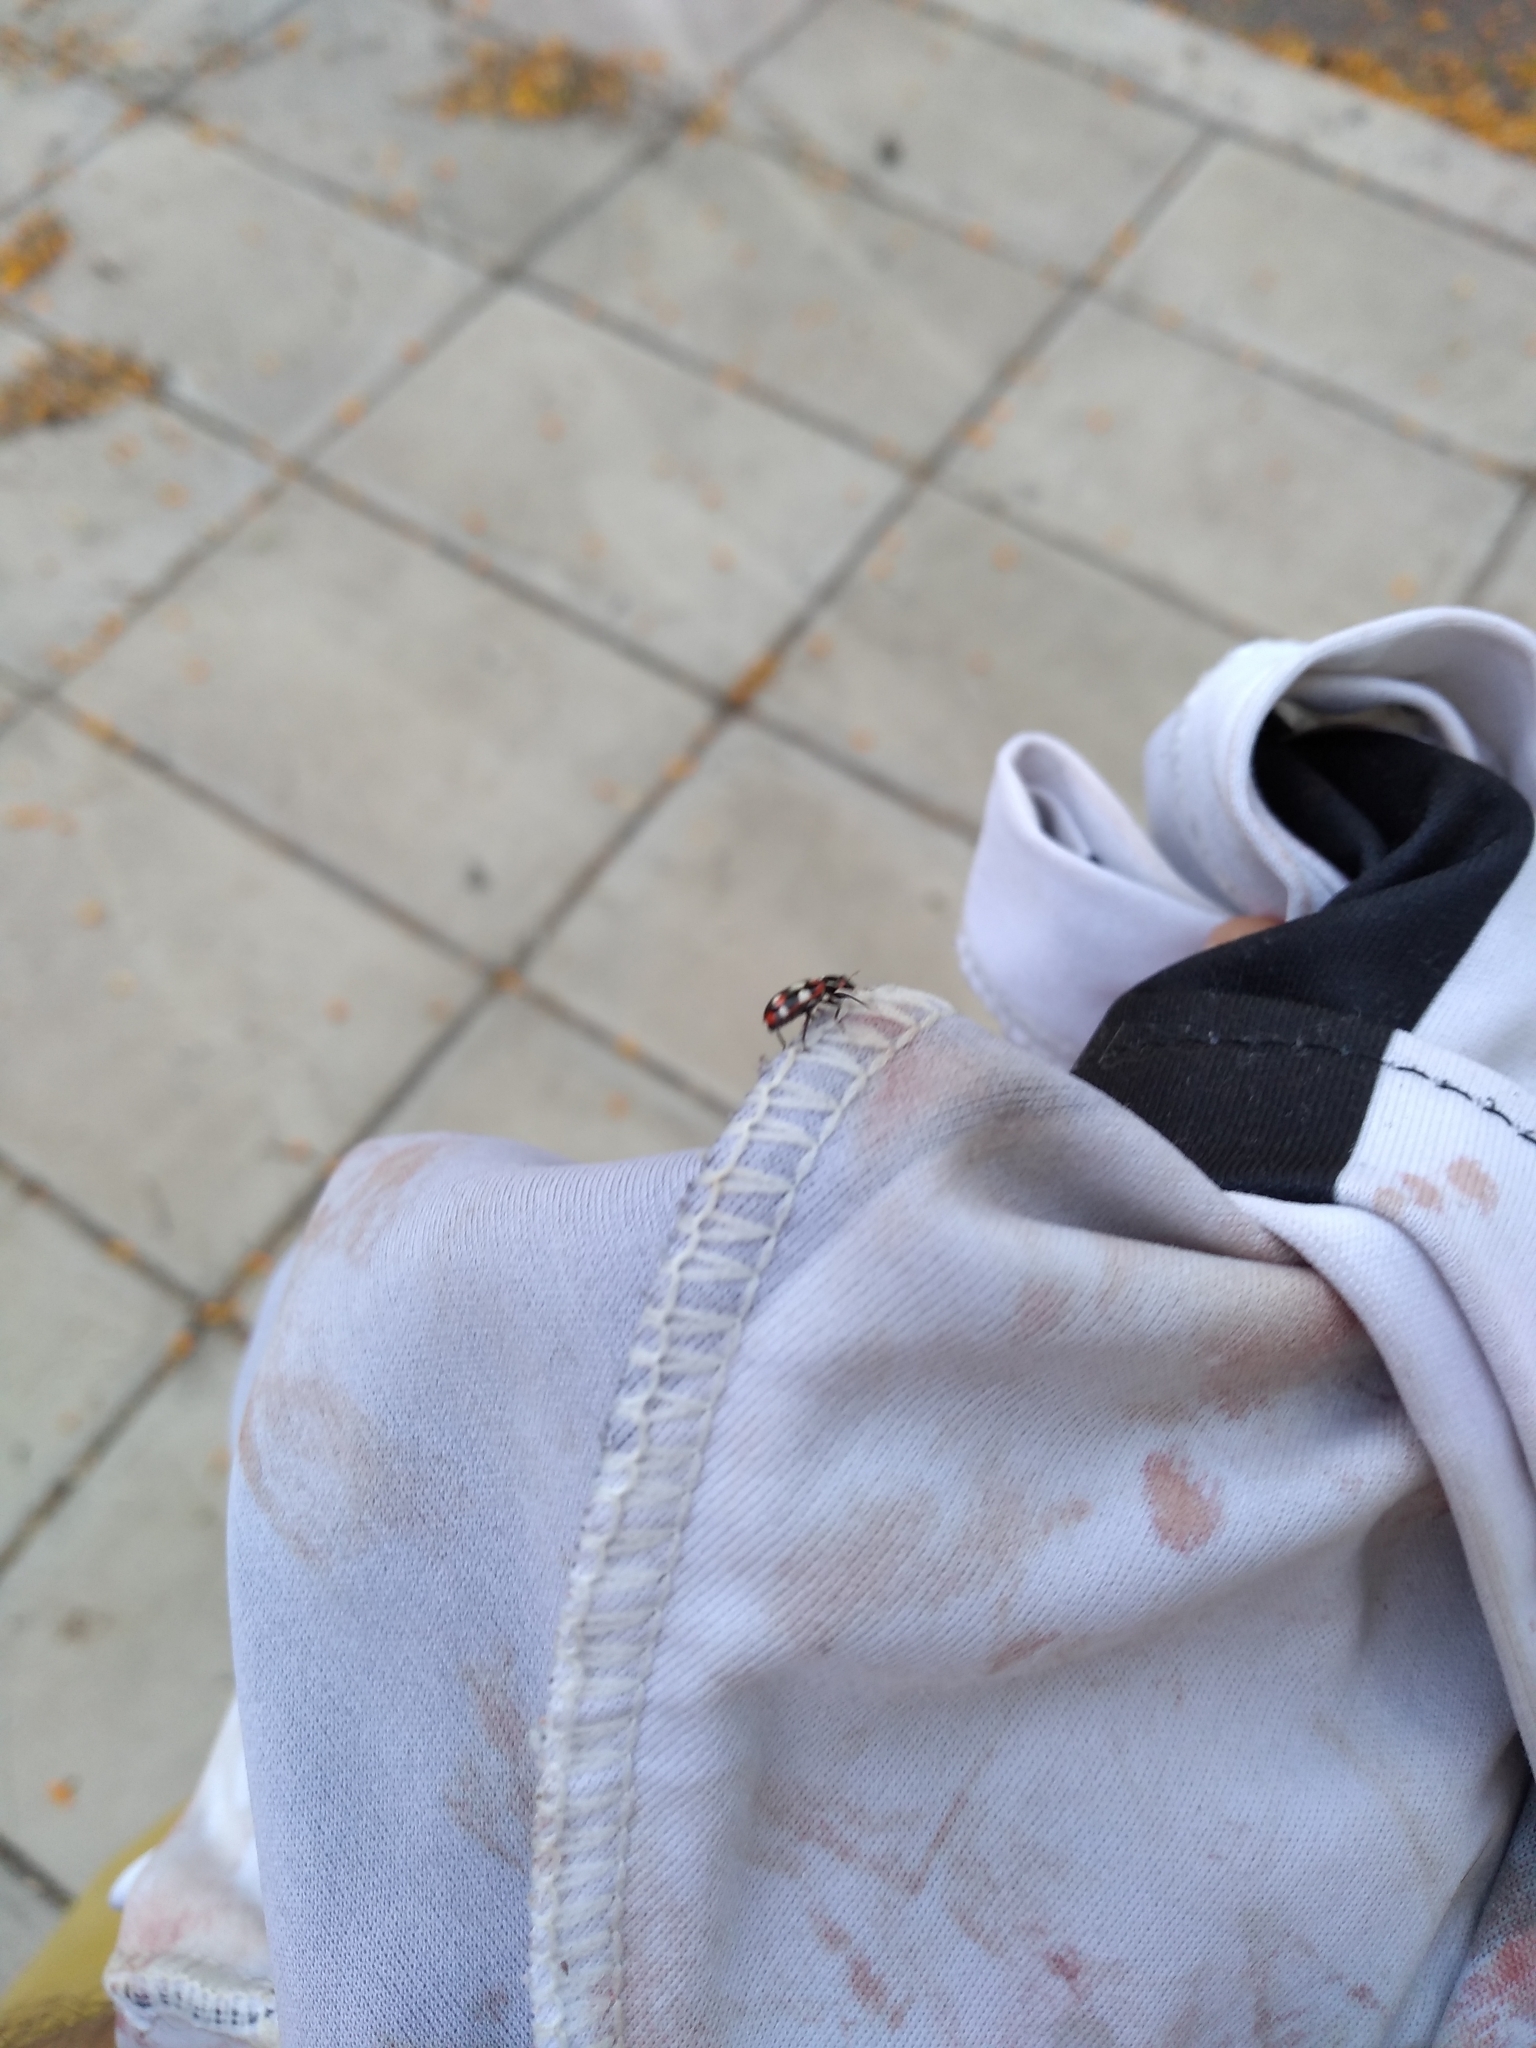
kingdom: Animalia
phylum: Arthropoda
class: Insecta
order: Coleoptera
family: Coccinellidae
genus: Eriopis
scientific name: Eriopis connexa
